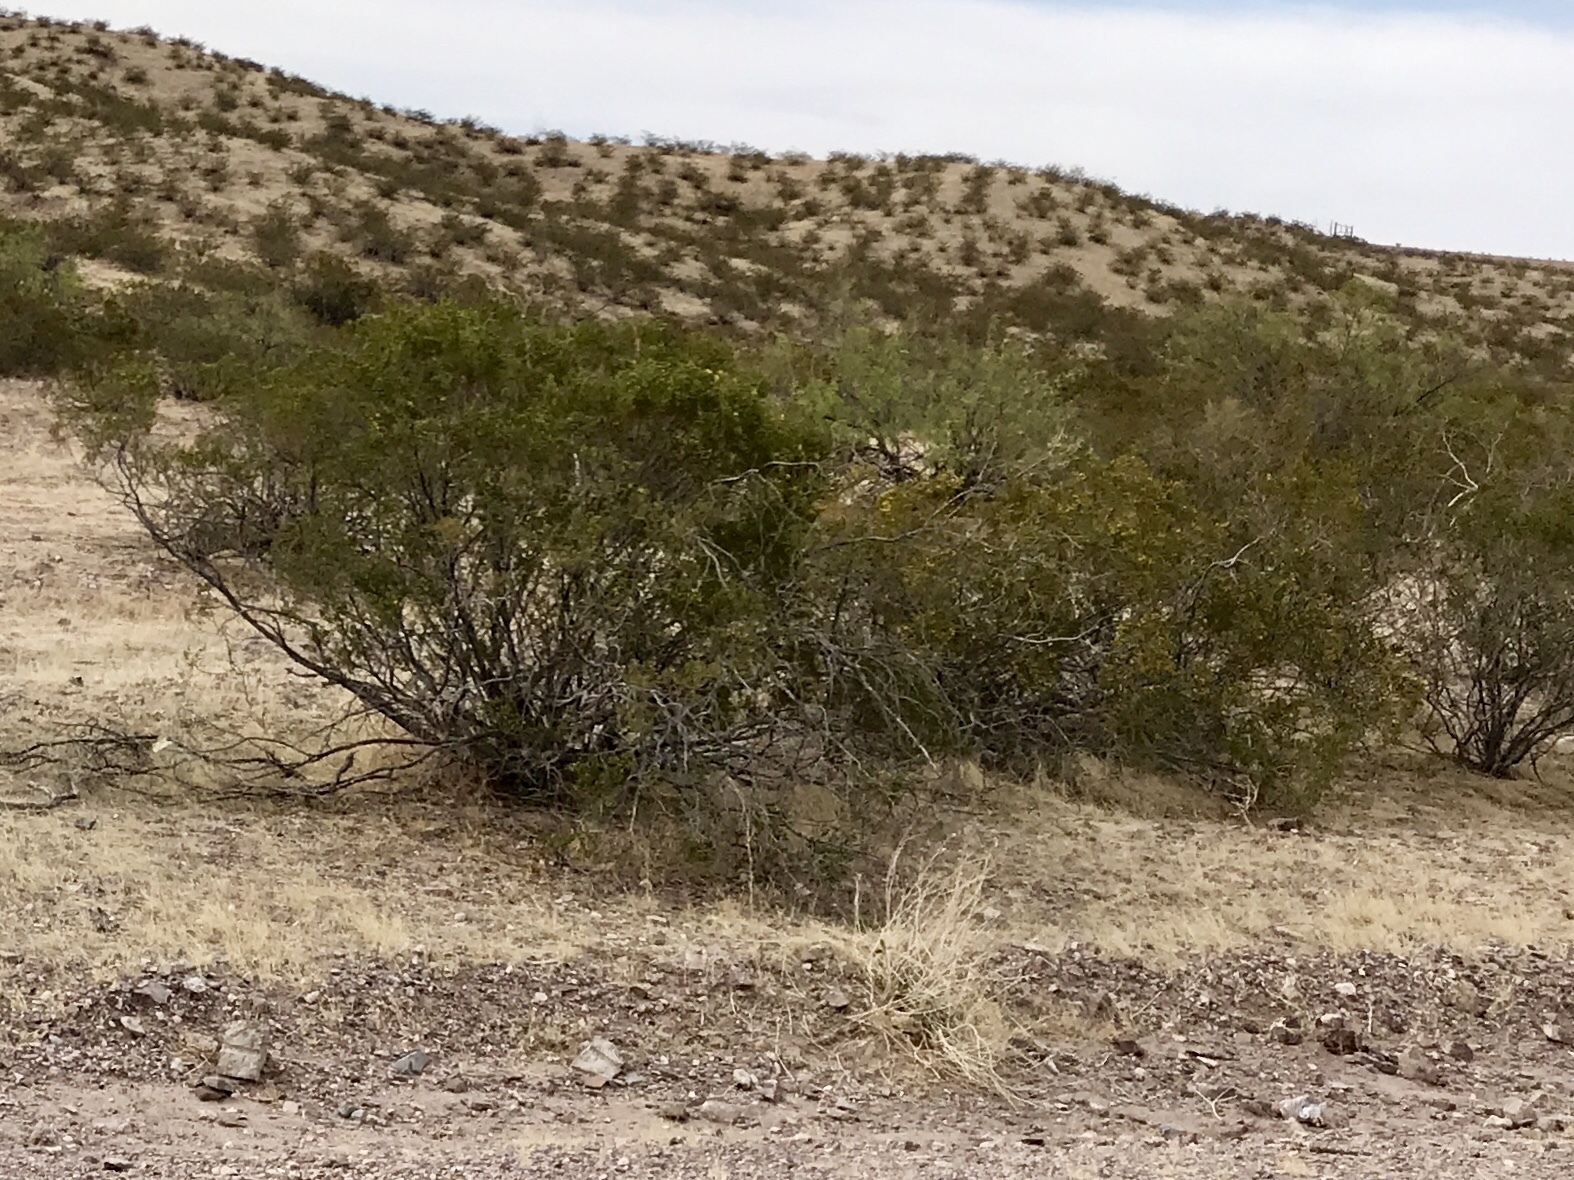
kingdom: Plantae
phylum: Tracheophyta
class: Magnoliopsida
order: Zygophyllales
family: Zygophyllaceae
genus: Larrea
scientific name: Larrea tridentata
